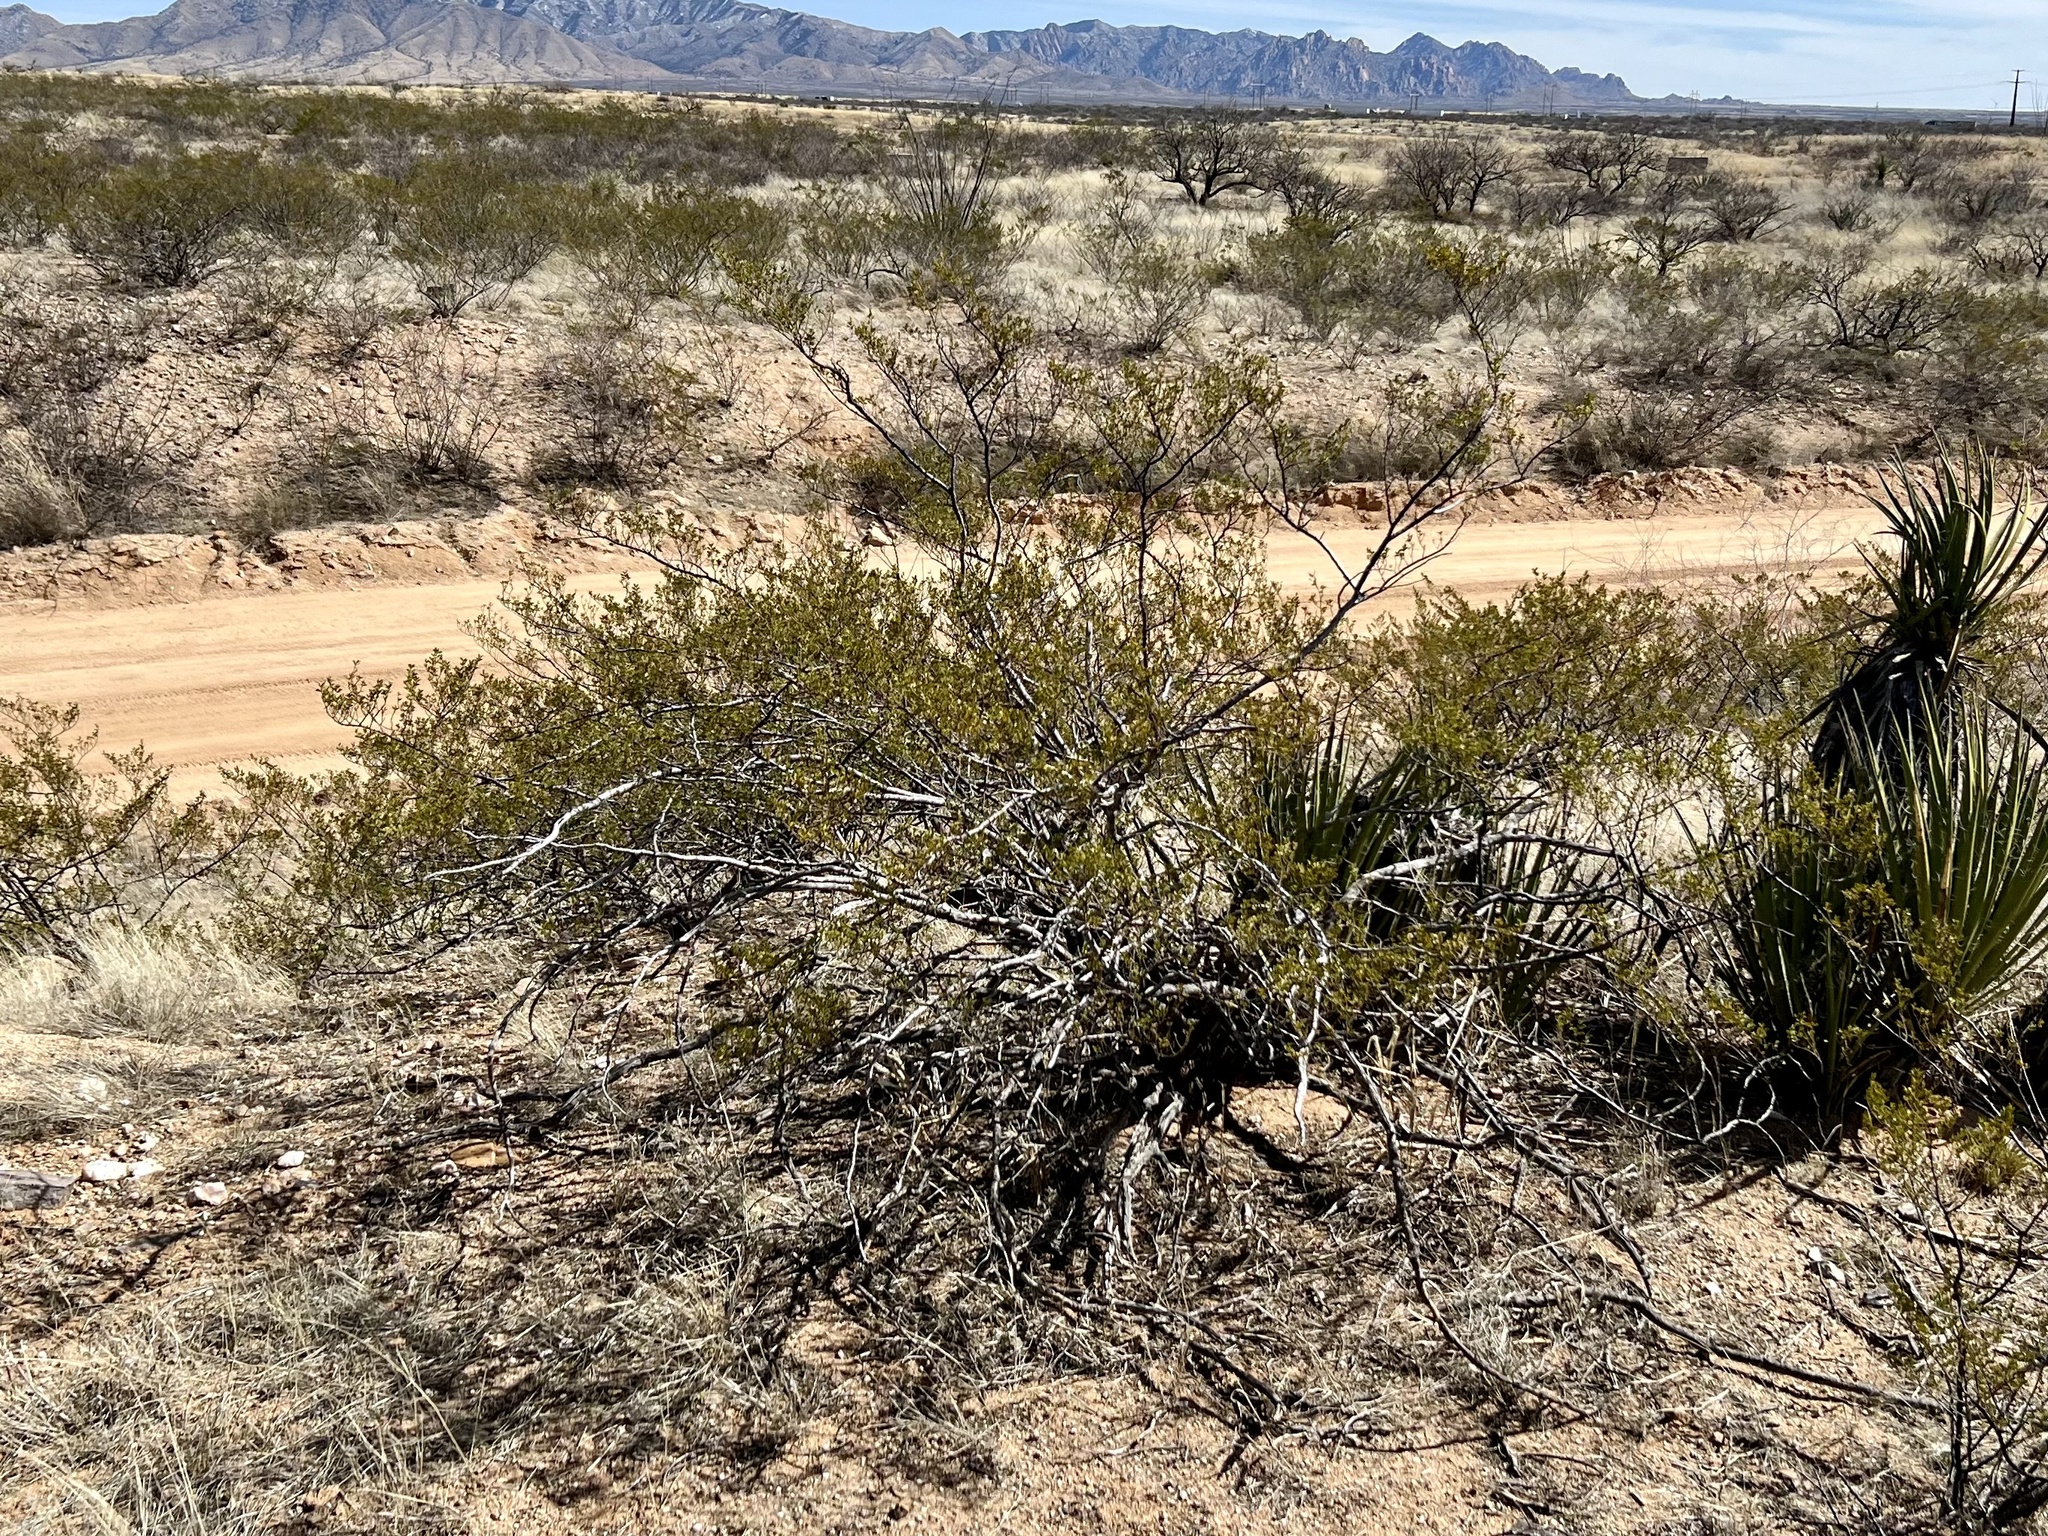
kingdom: Plantae
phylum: Tracheophyta
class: Magnoliopsida
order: Zygophyllales
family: Zygophyllaceae
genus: Larrea
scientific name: Larrea tridentata
